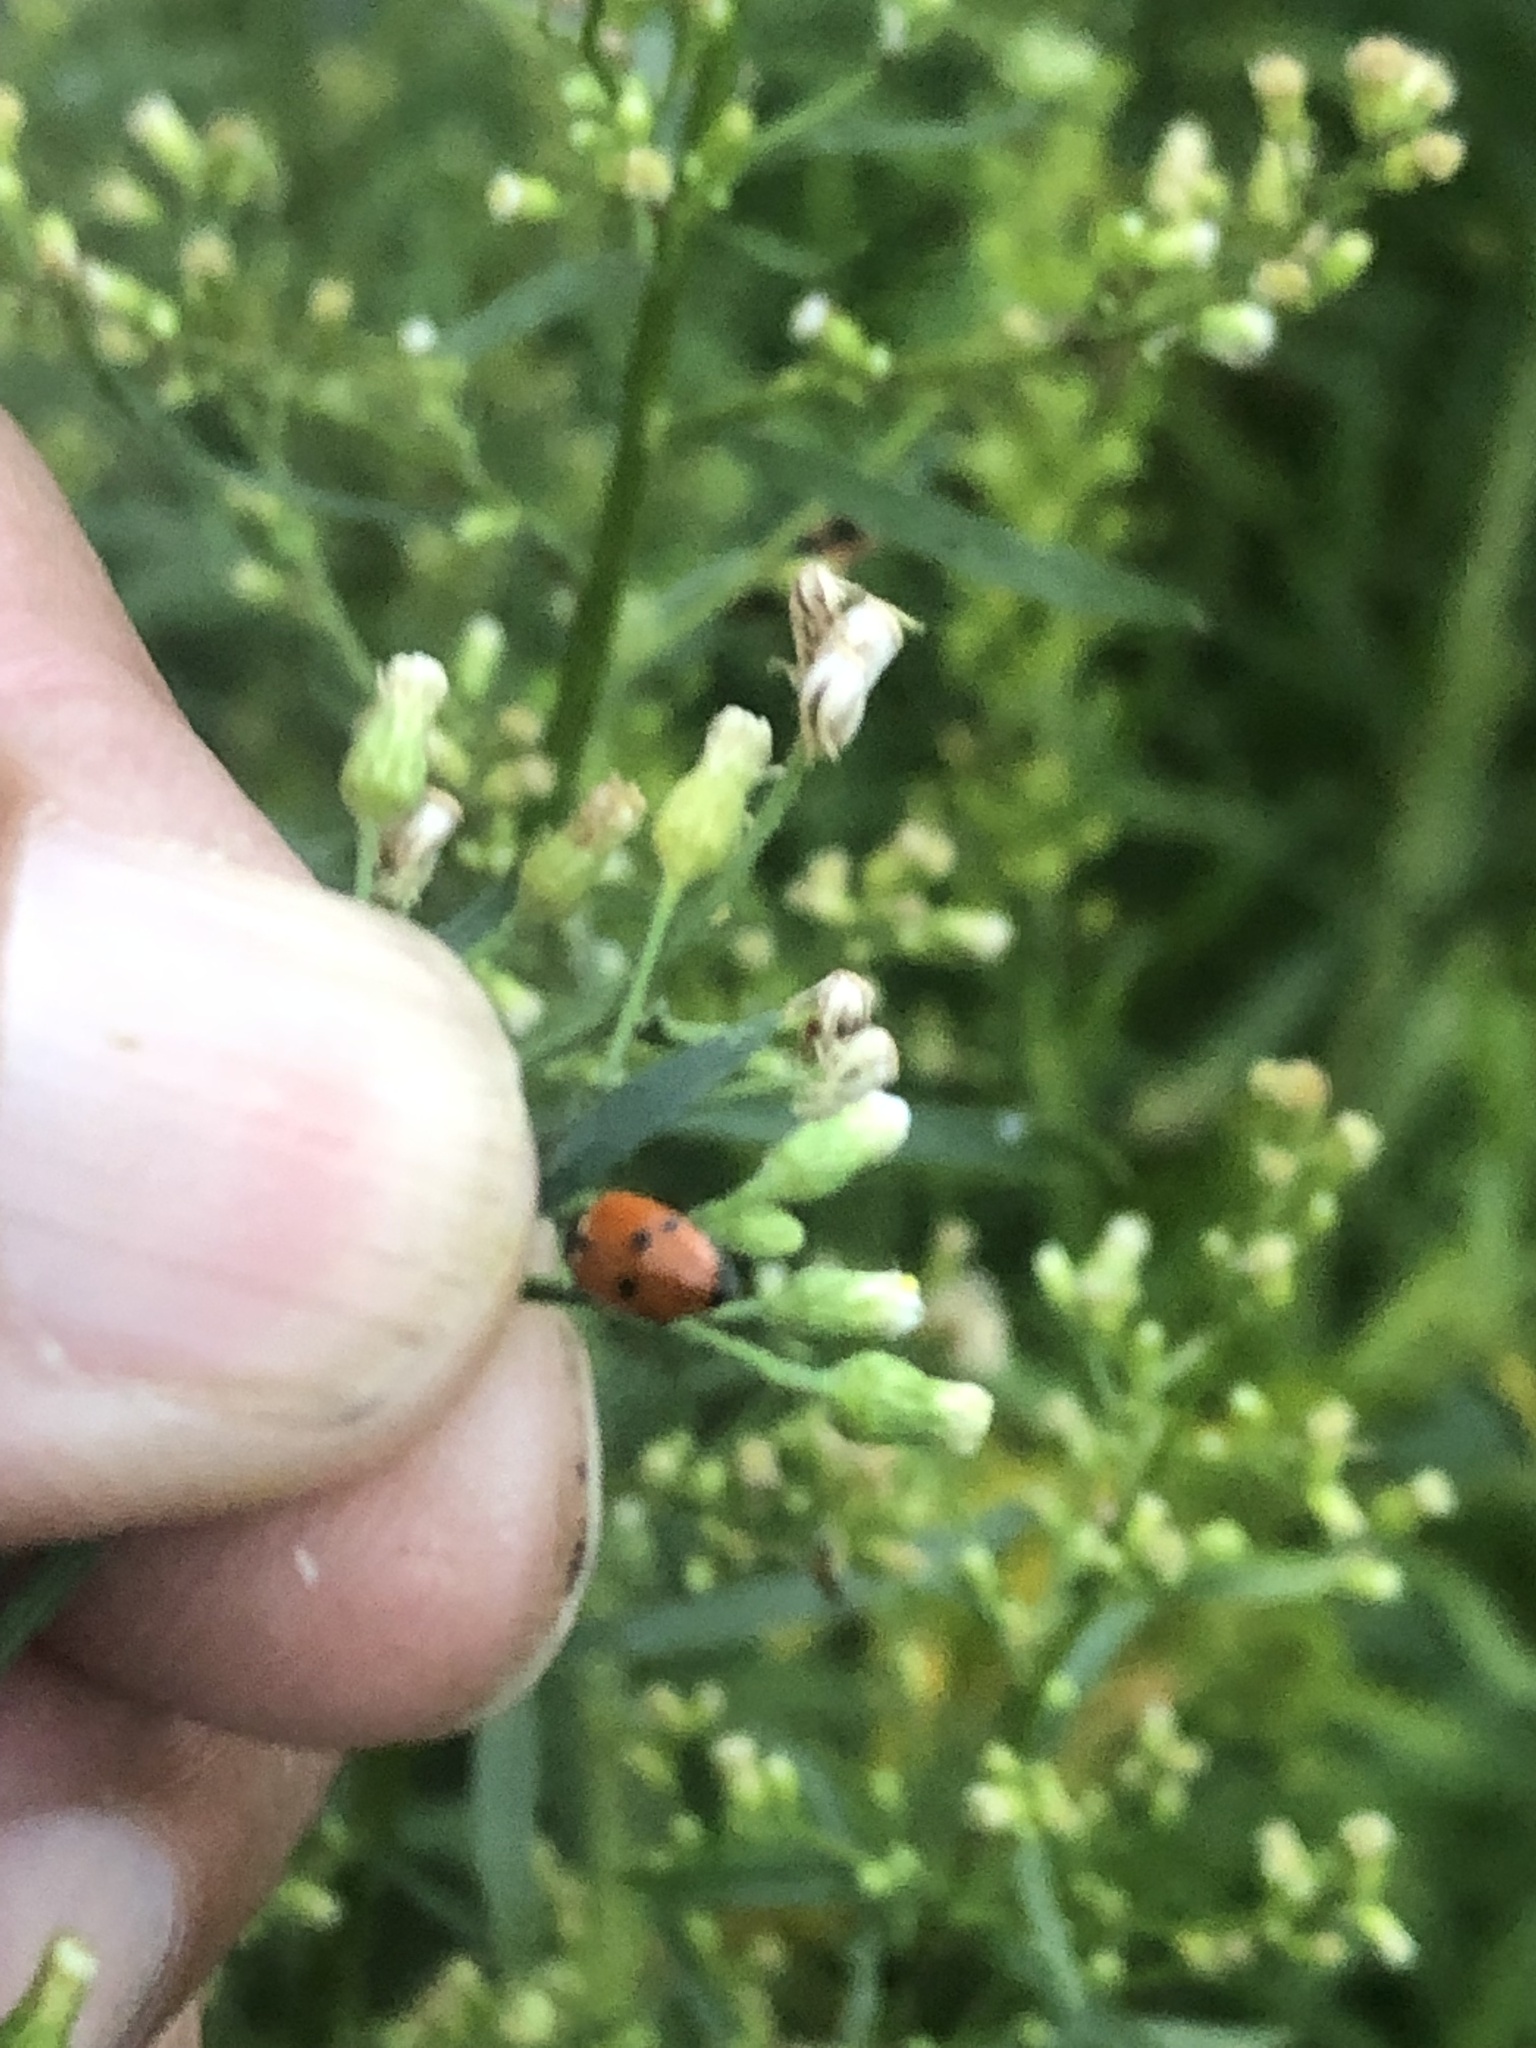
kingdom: Animalia
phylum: Arthropoda
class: Insecta
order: Coleoptera
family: Coccinellidae
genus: Hippodamia
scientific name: Hippodamia variegata
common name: Ladybird beetle
